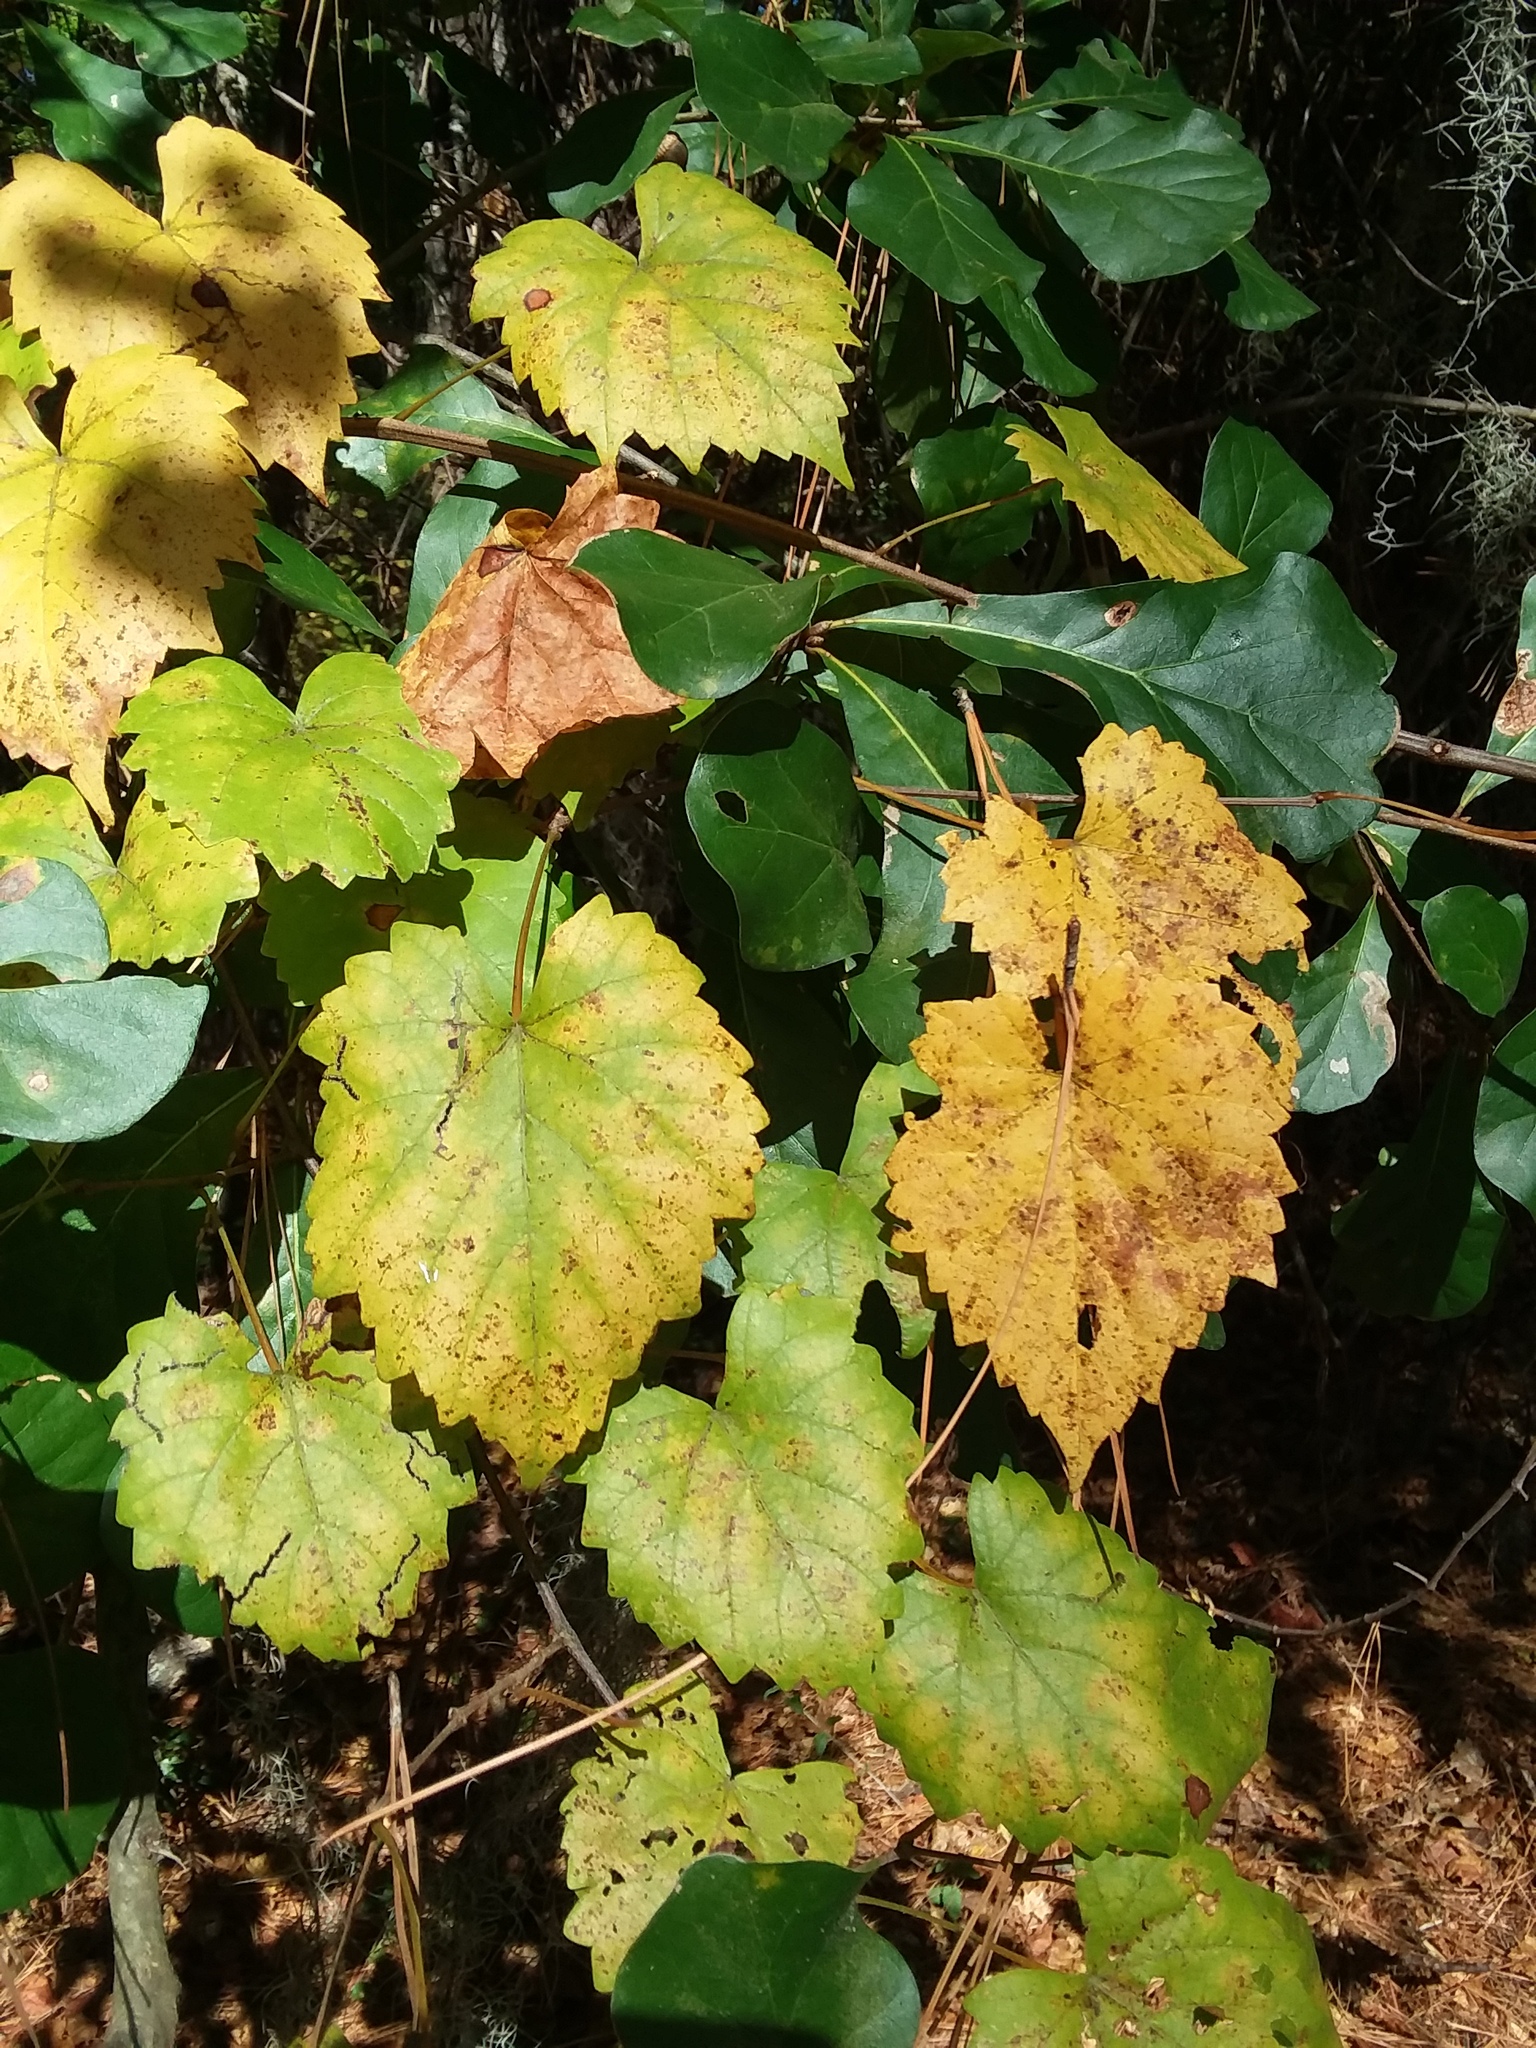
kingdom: Plantae
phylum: Tracheophyta
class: Magnoliopsida
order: Vitales
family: Vitaceae
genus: Vitis
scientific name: Vitis rotundifolia
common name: Muscadine grape
